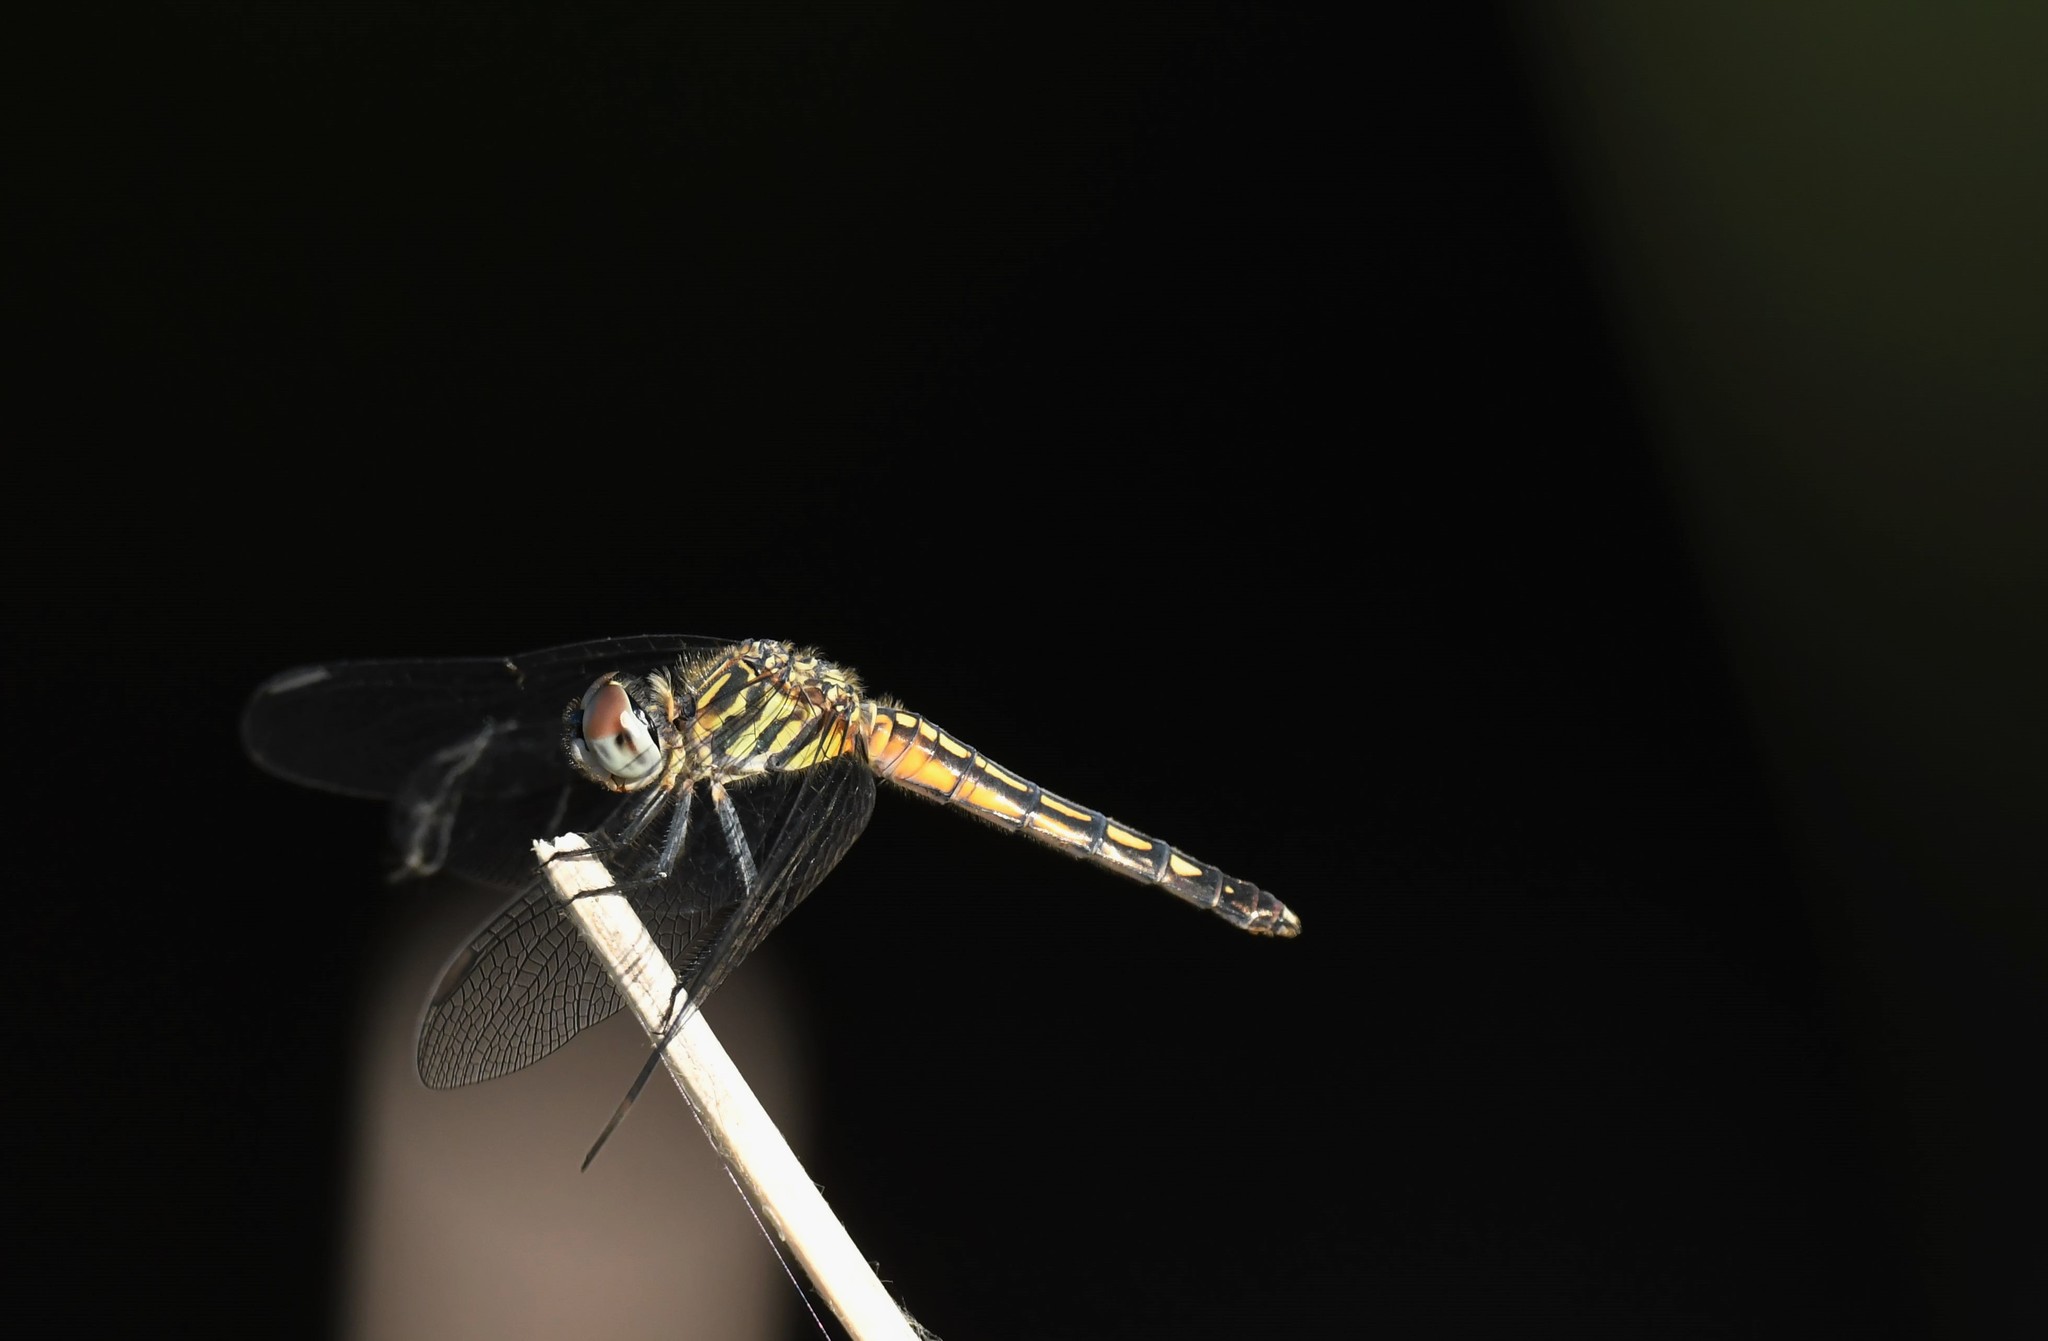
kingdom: Animalia
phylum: Arthropoda
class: Insecta
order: Odonata
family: Libellulidae
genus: Pachydiplax
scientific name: Pachydiplax longipennis
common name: Blue dasher
